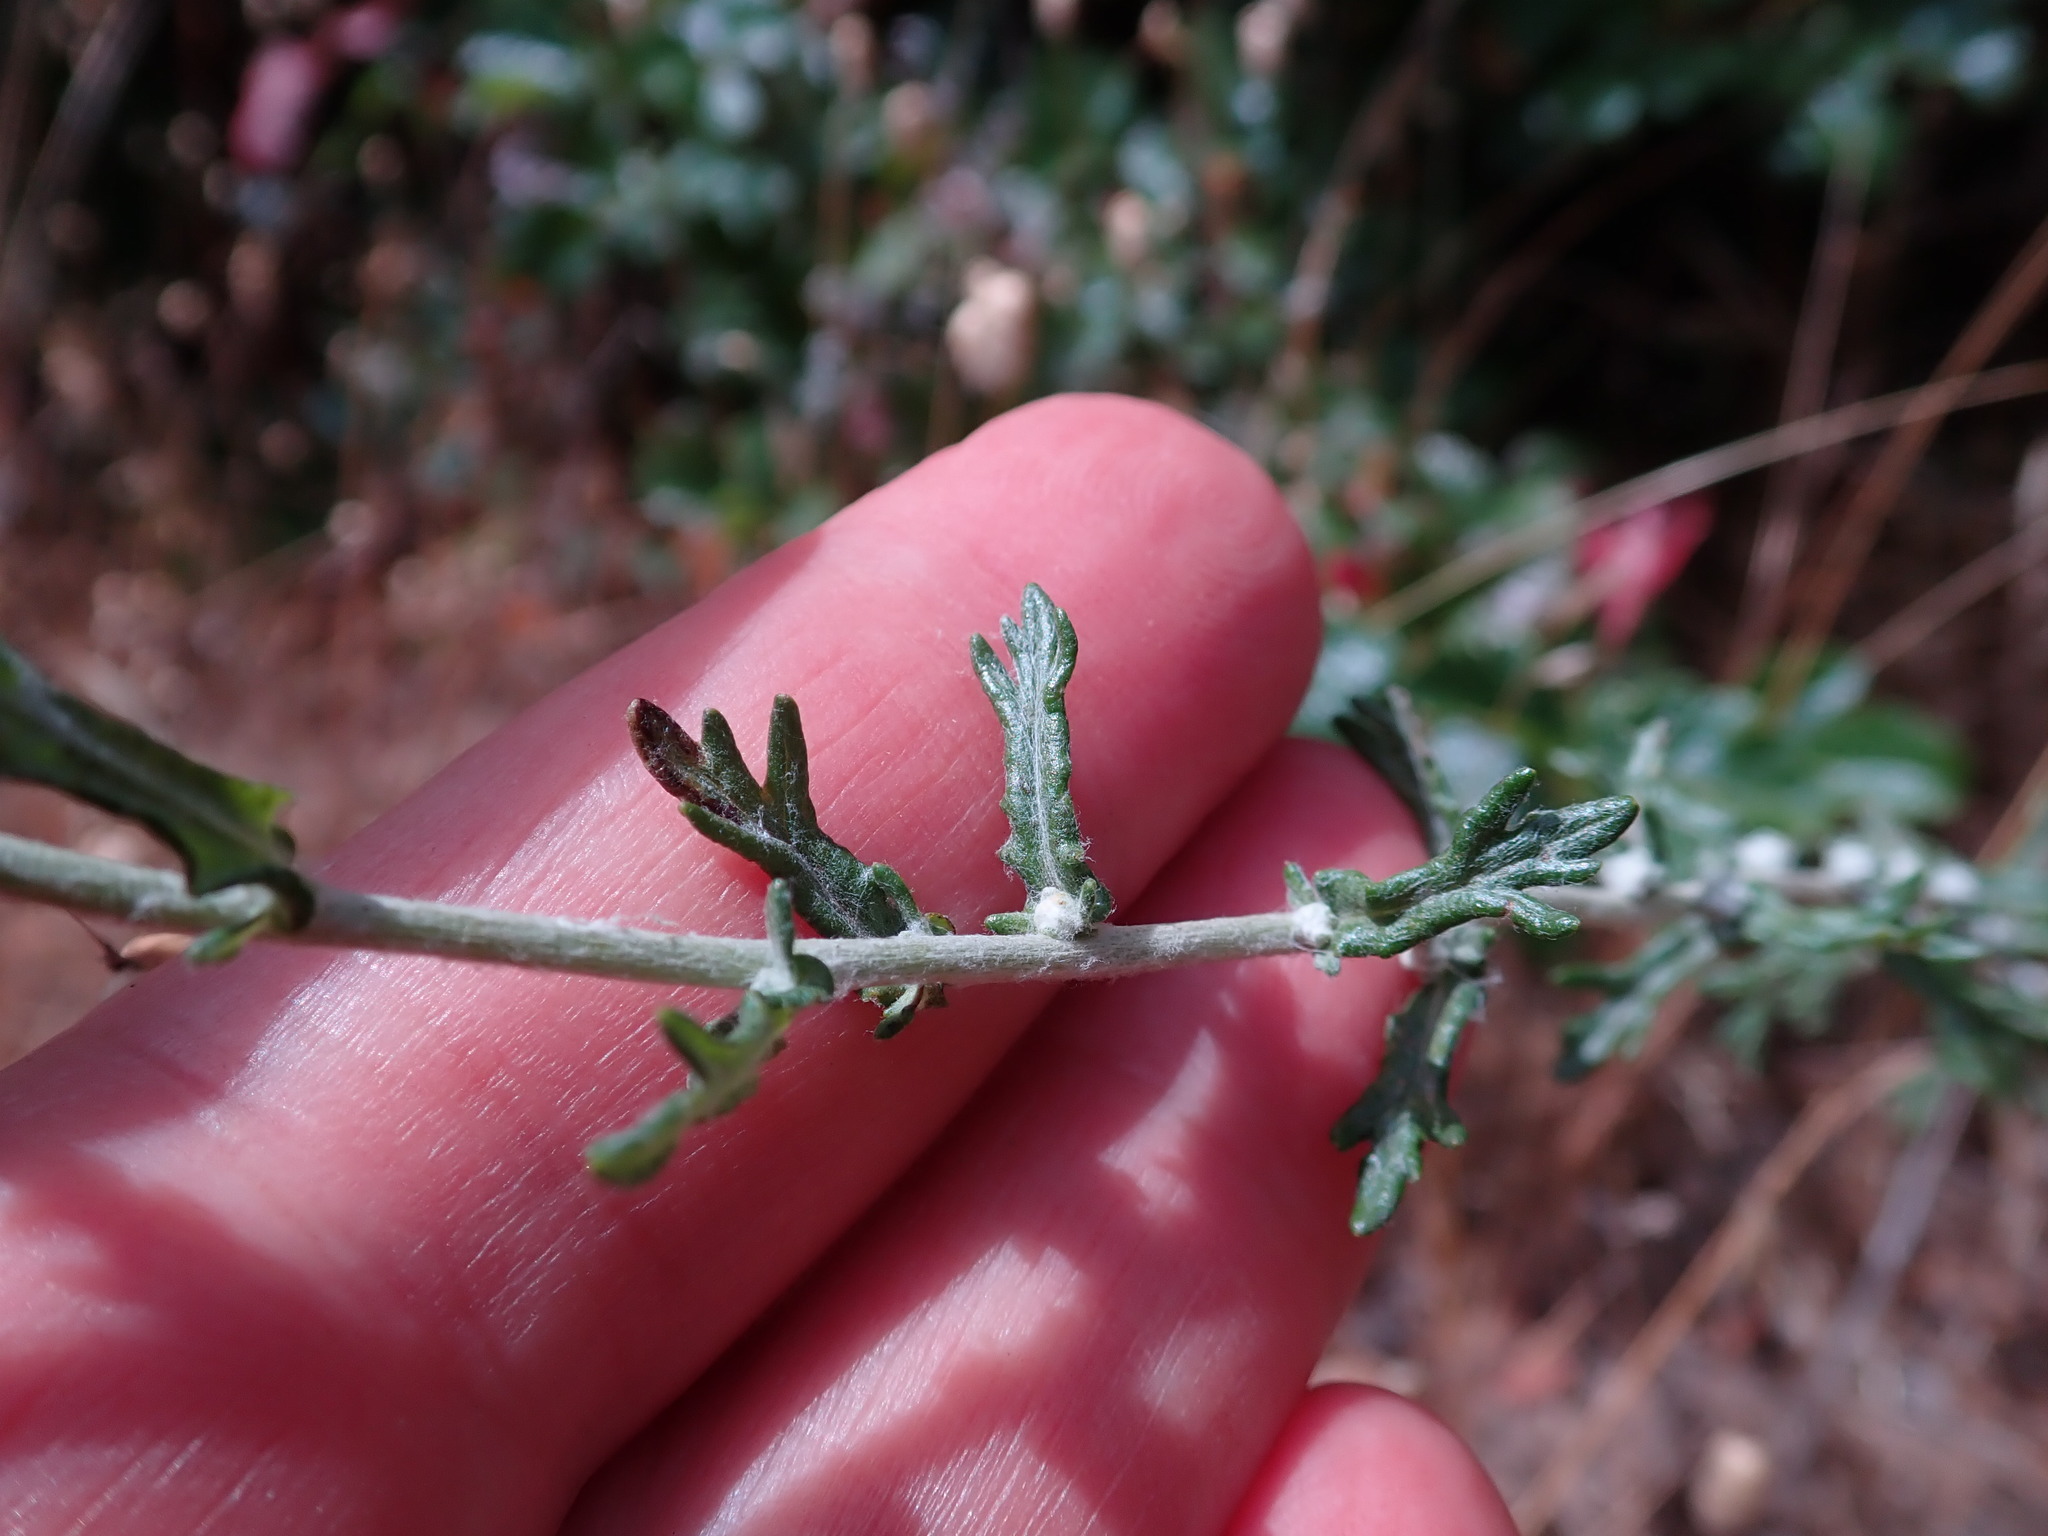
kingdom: Plantae
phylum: Tracheophyta
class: Magnoliopsida
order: Asterales
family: Asteraceae
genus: Eriophyllum
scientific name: Eriophyllum confertiflorum
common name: Golden-yarrow
